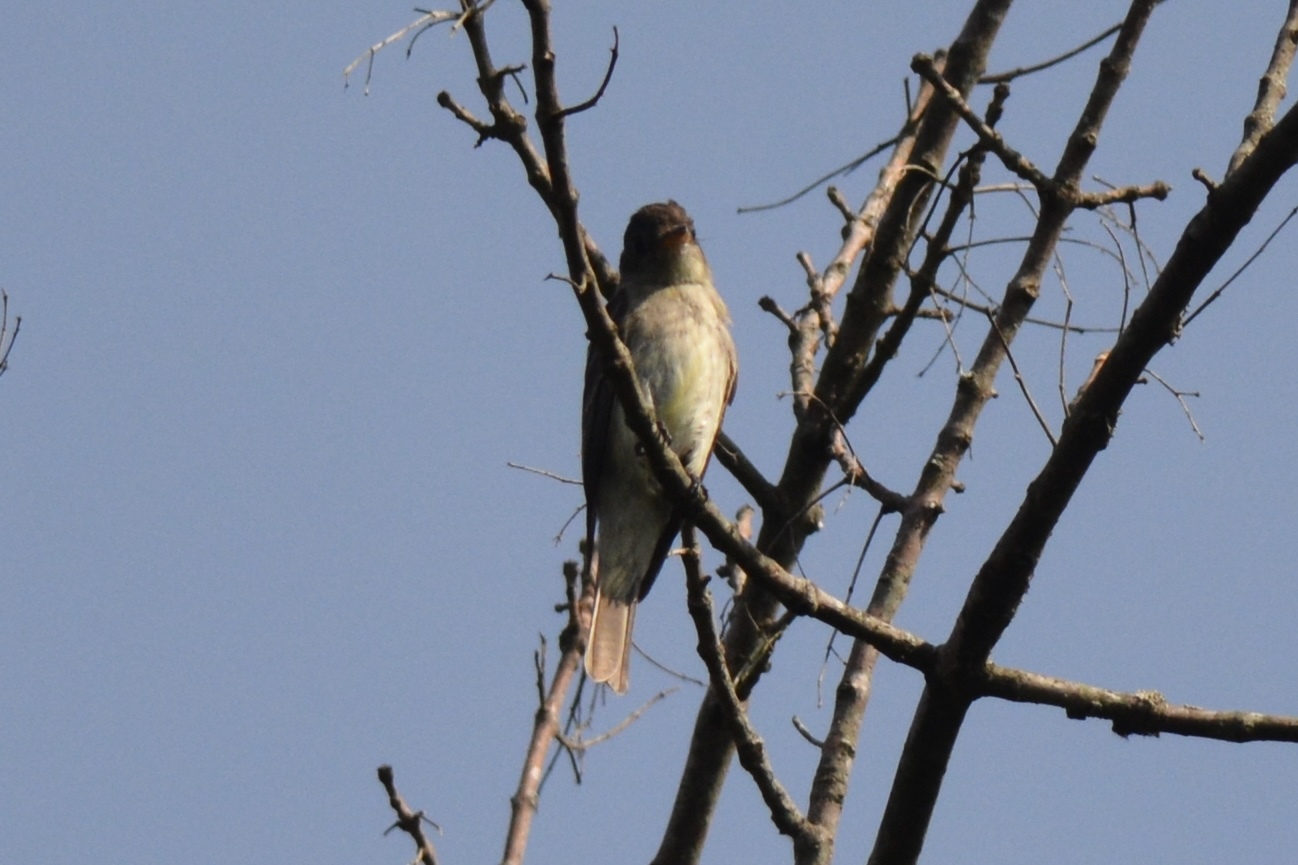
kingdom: Animalia
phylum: Chordata
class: Aves
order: Passeriformes
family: Tyrannidae
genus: Contopus
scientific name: Contopus virens
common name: Eastern wood-pewee
